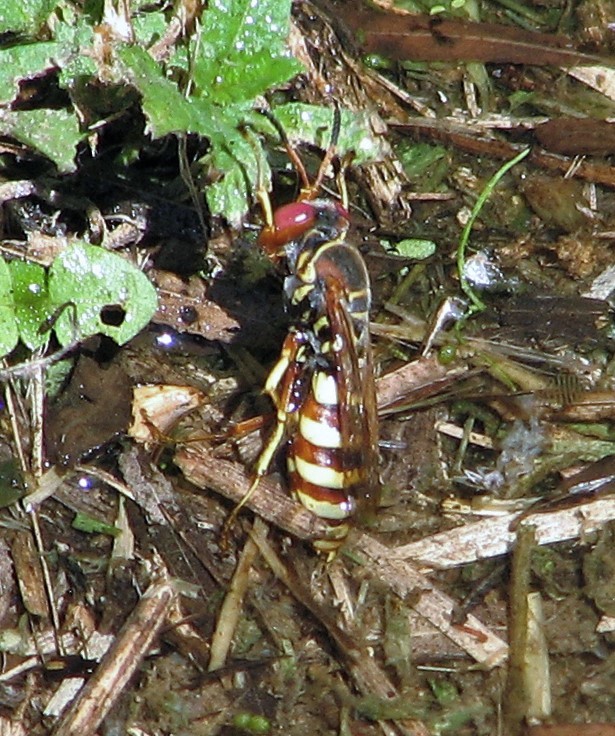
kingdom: Animalia
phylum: Arthropoda
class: Insecta
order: Hymenoptera
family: Crabronidae
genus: Rubrica
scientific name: Rubrica nasuta
